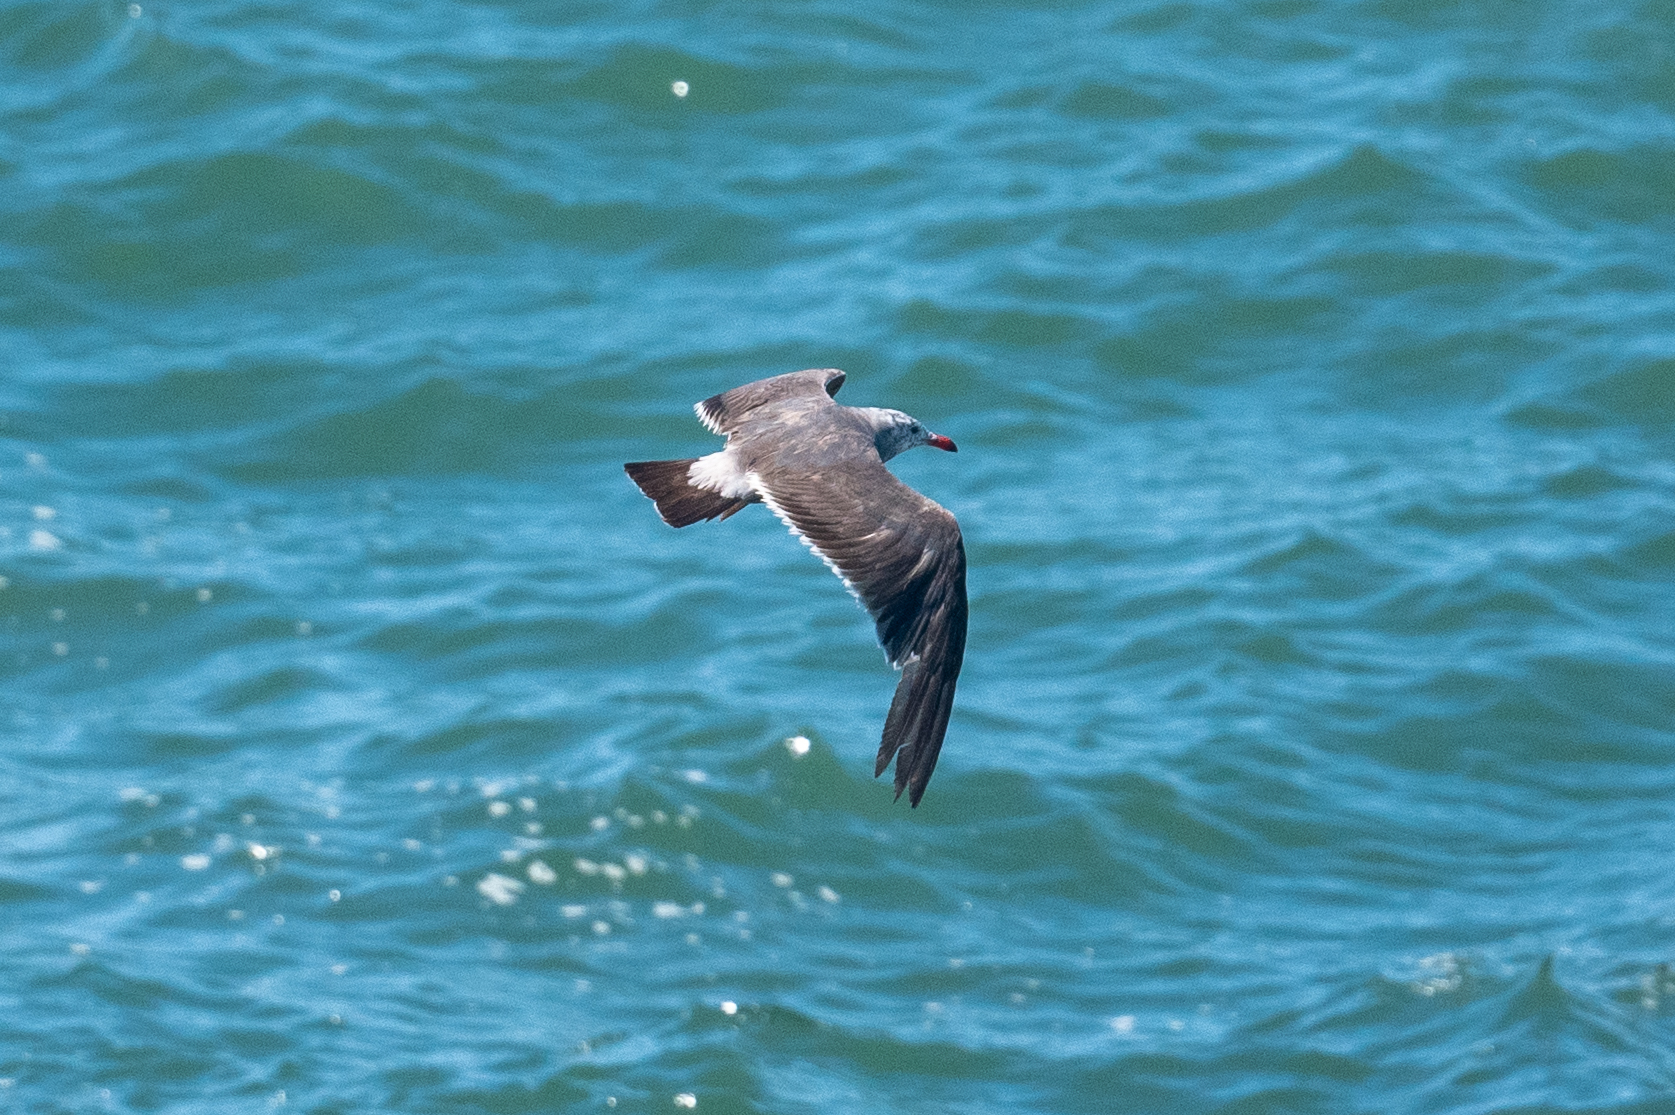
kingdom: Animalia
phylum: Chordata
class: Aves
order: Charadriiformes
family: Laridae
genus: Larus
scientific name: Larus heermanni
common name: Heermann's gull
